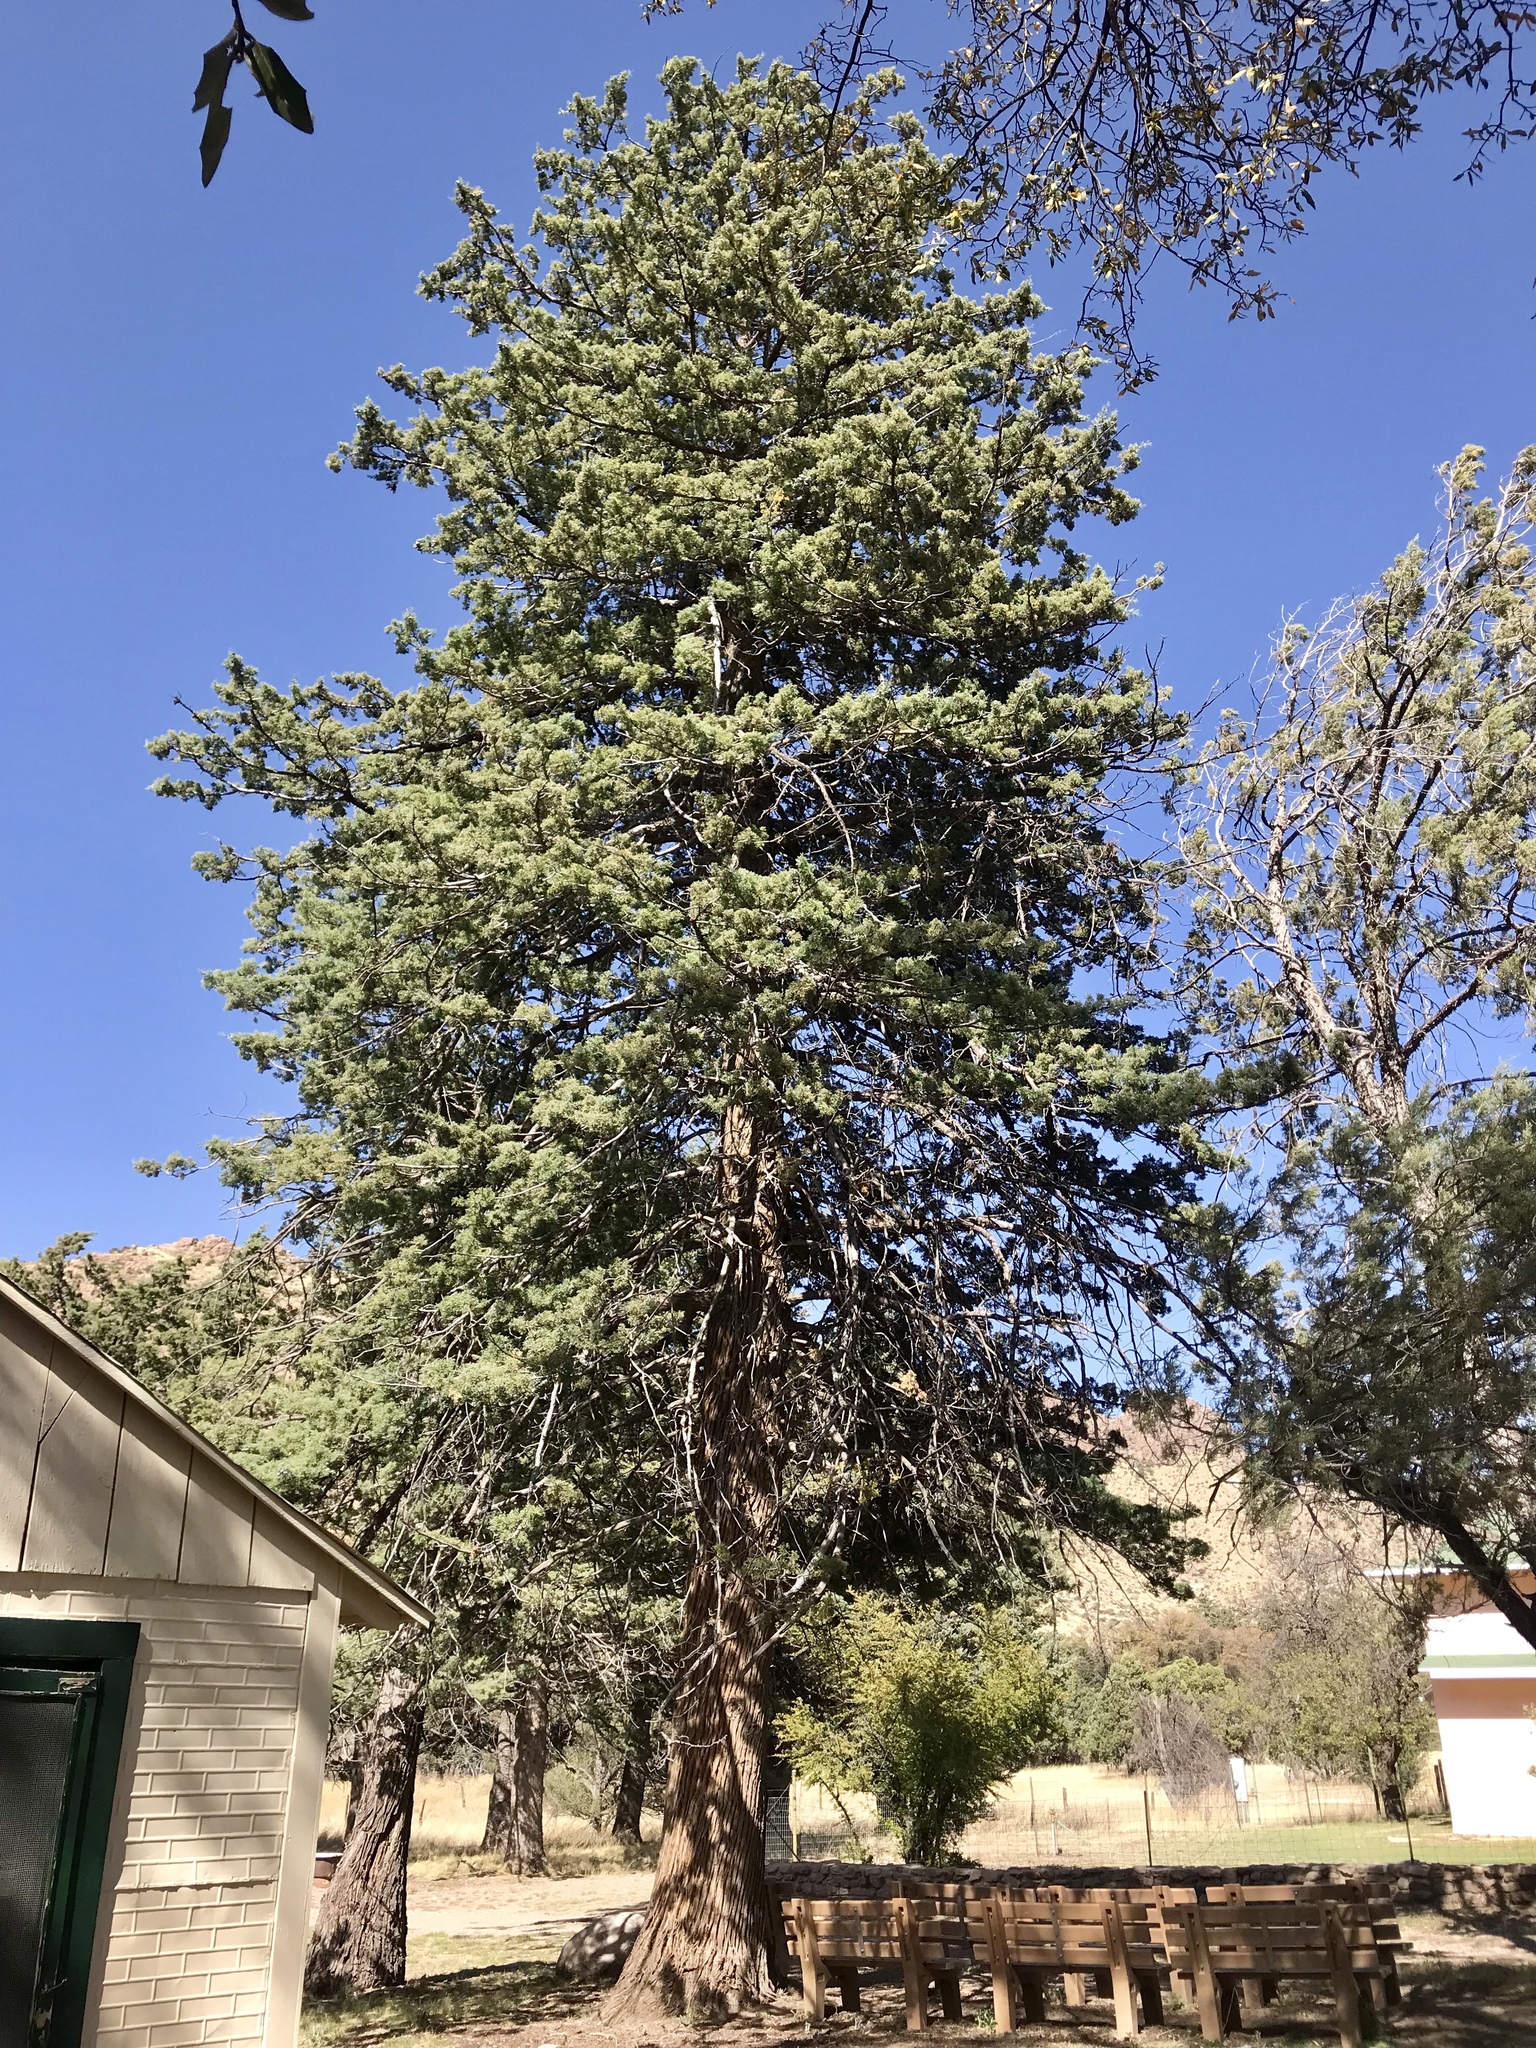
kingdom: Plantae
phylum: Tracheophyta
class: Pinopsida
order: Pinales
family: Cupressaceae
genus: Cupressus
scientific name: Cupressus arizonica
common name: Arizona cypress
